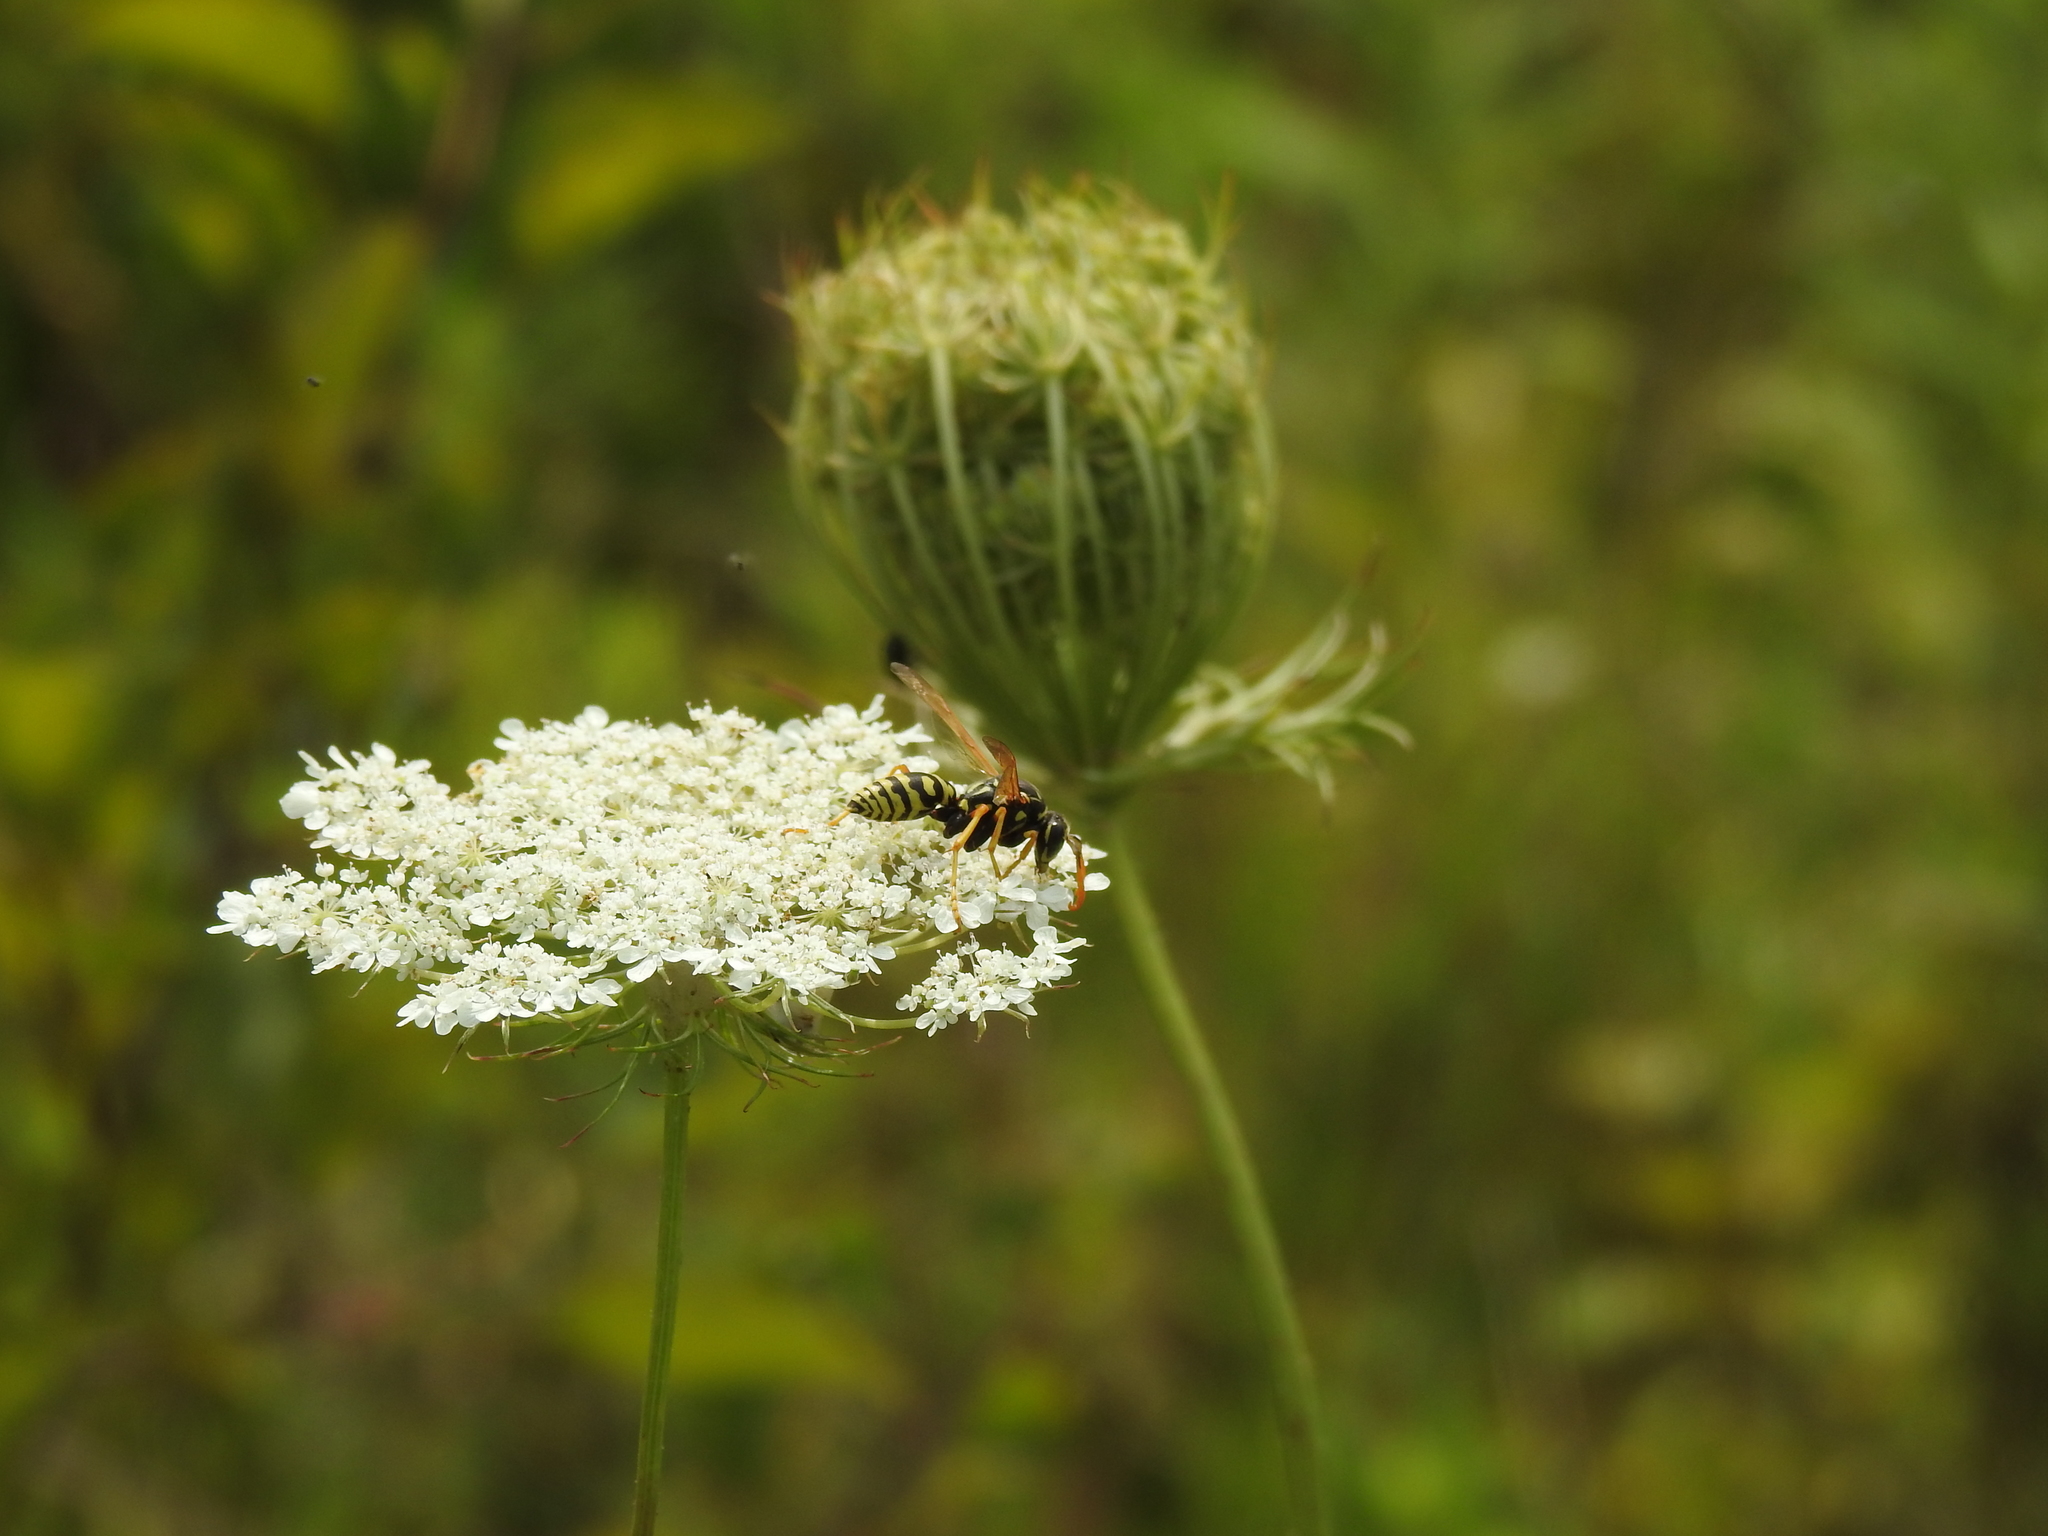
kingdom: Plantae
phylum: Tracheophyta
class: Magnoliopsida
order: Apiales
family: Apiaceae
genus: Daucus
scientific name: Daucus carota
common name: Wild carrot
